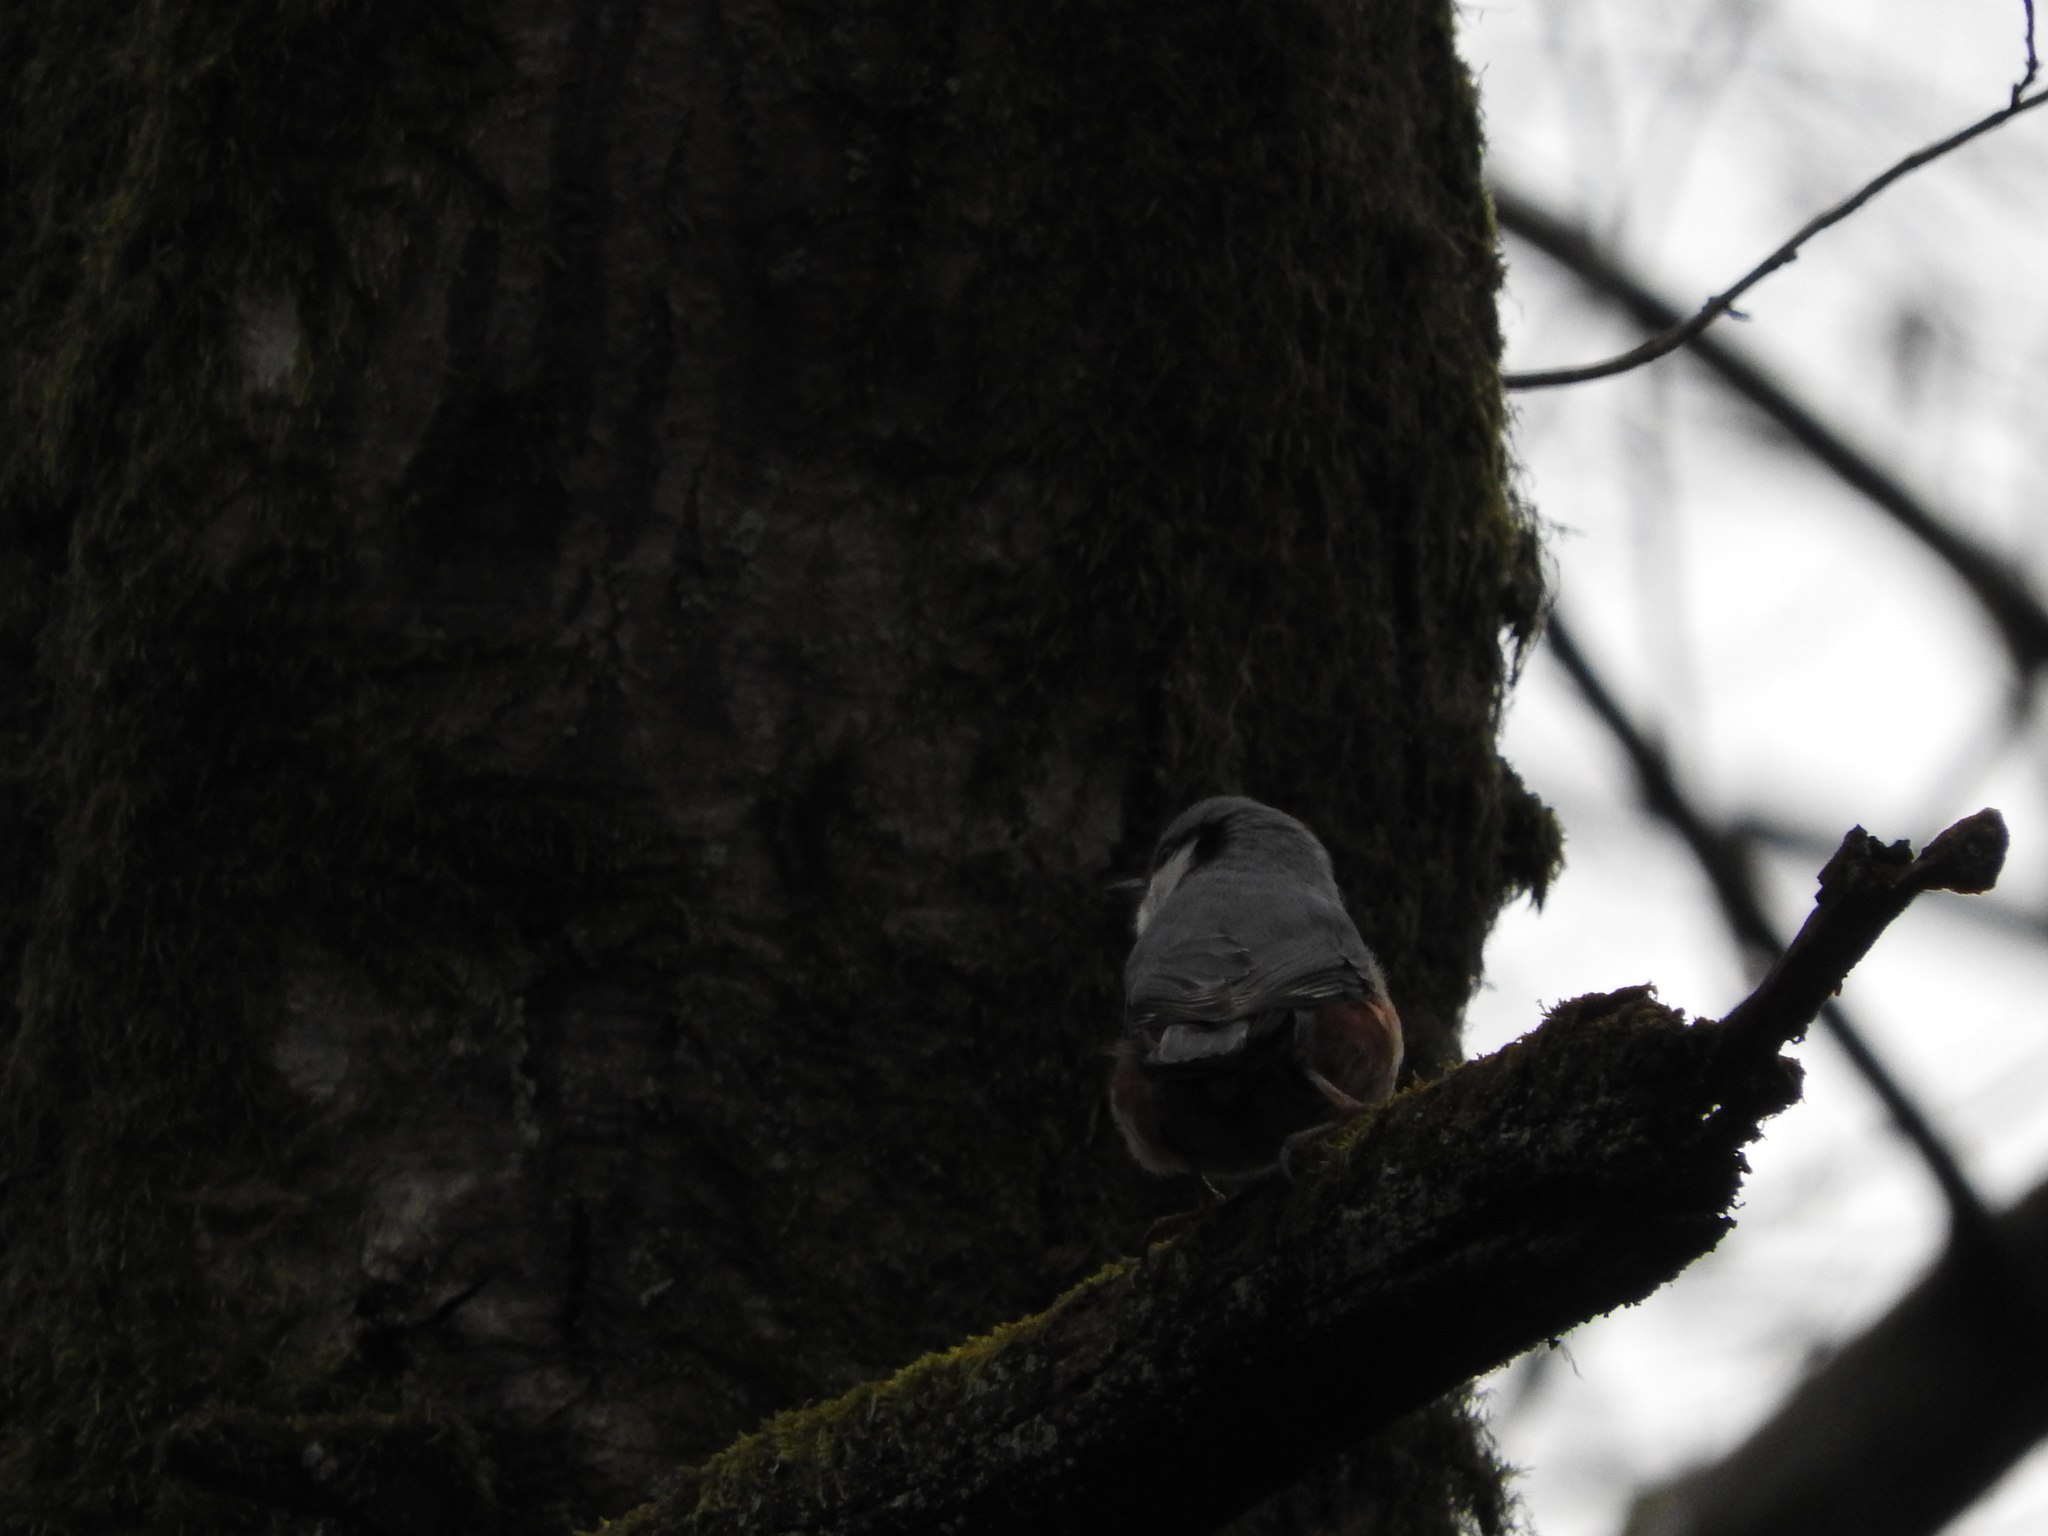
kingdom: Animalia
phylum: Chordata
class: Aves
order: Passeriformes
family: Sittidae
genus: Sitta
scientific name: Sitta europaea
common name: Eurasian nuthatch
